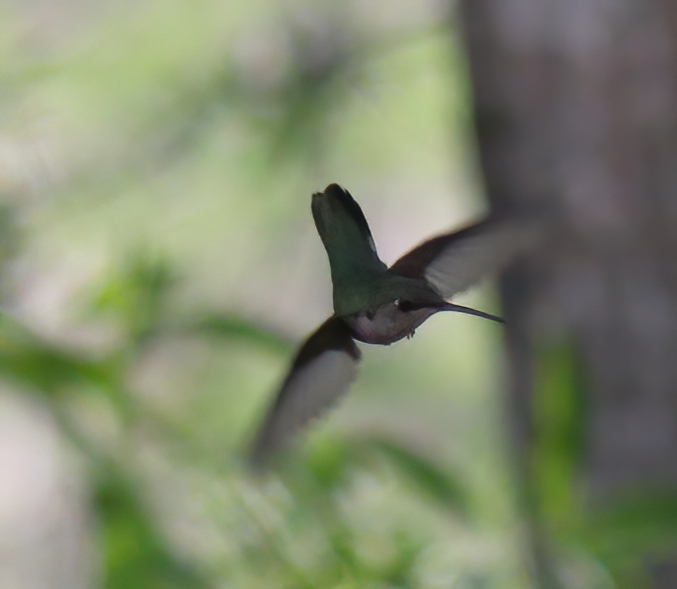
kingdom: Animalia
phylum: Chordata
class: Aves
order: Apodiformes
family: Trochilidae
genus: Archilochus
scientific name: Archilochus colubris
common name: Ruby-throated hummingbird
